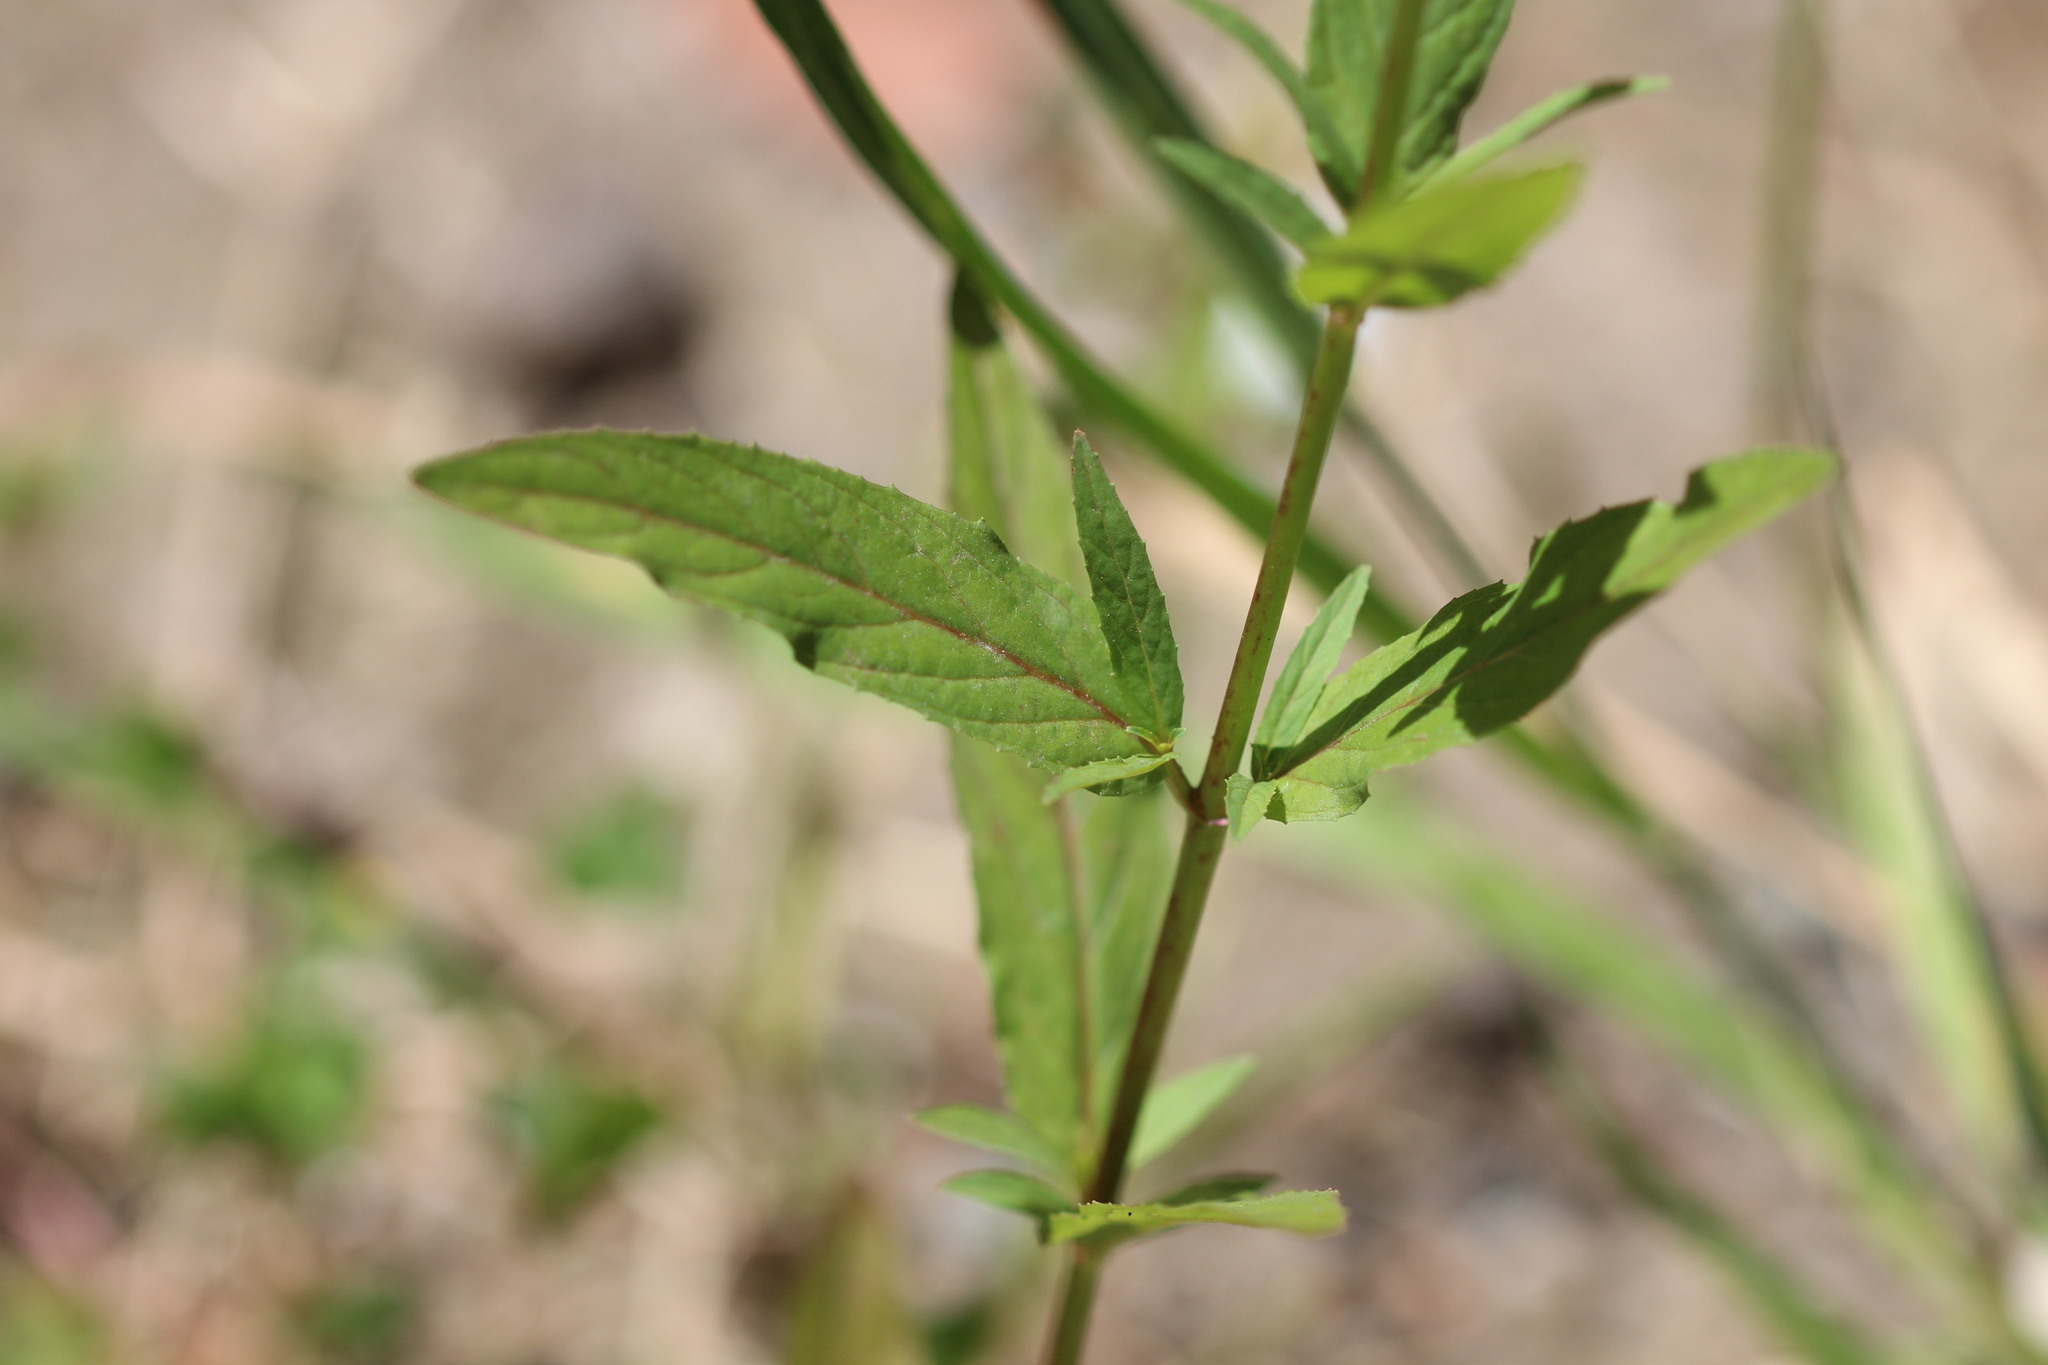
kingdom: Plantae
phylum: Tracheophyta
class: Magnoliopsida
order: Myrtales
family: Onagraceae
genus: Epilobium
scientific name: Epilobium brachycarpum
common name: Annual willowherb
